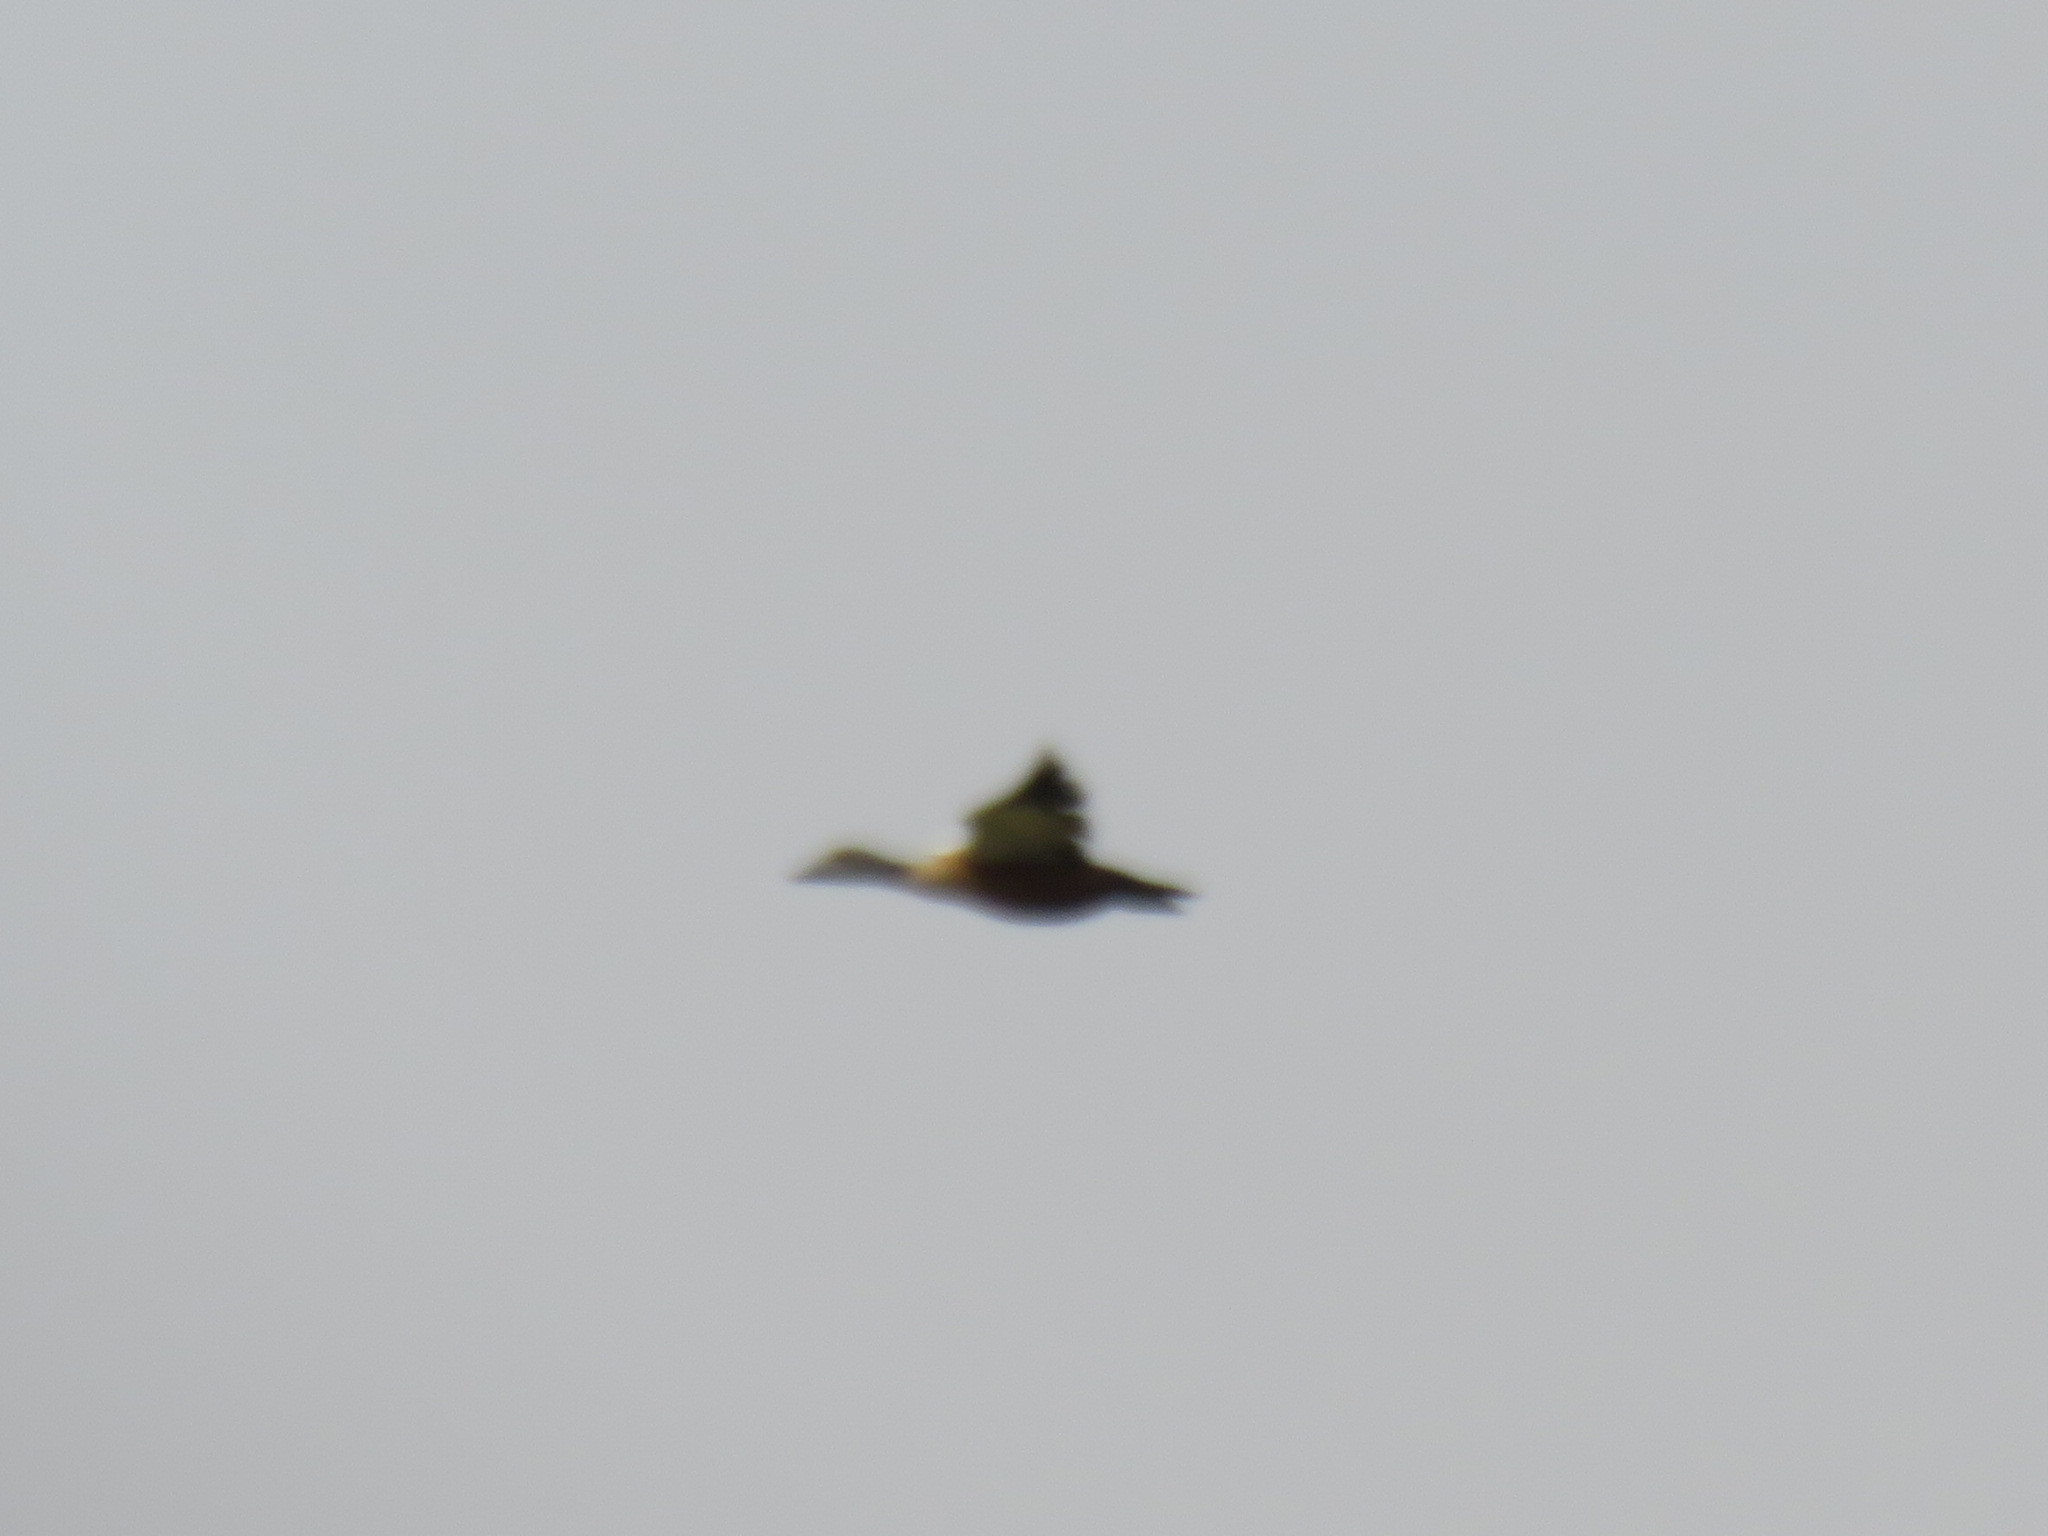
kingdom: Animalia
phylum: Chordata
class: Aves
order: Anseriformes
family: Anatidae
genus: Tadorna
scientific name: Tadorna cana
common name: South african shelduck
